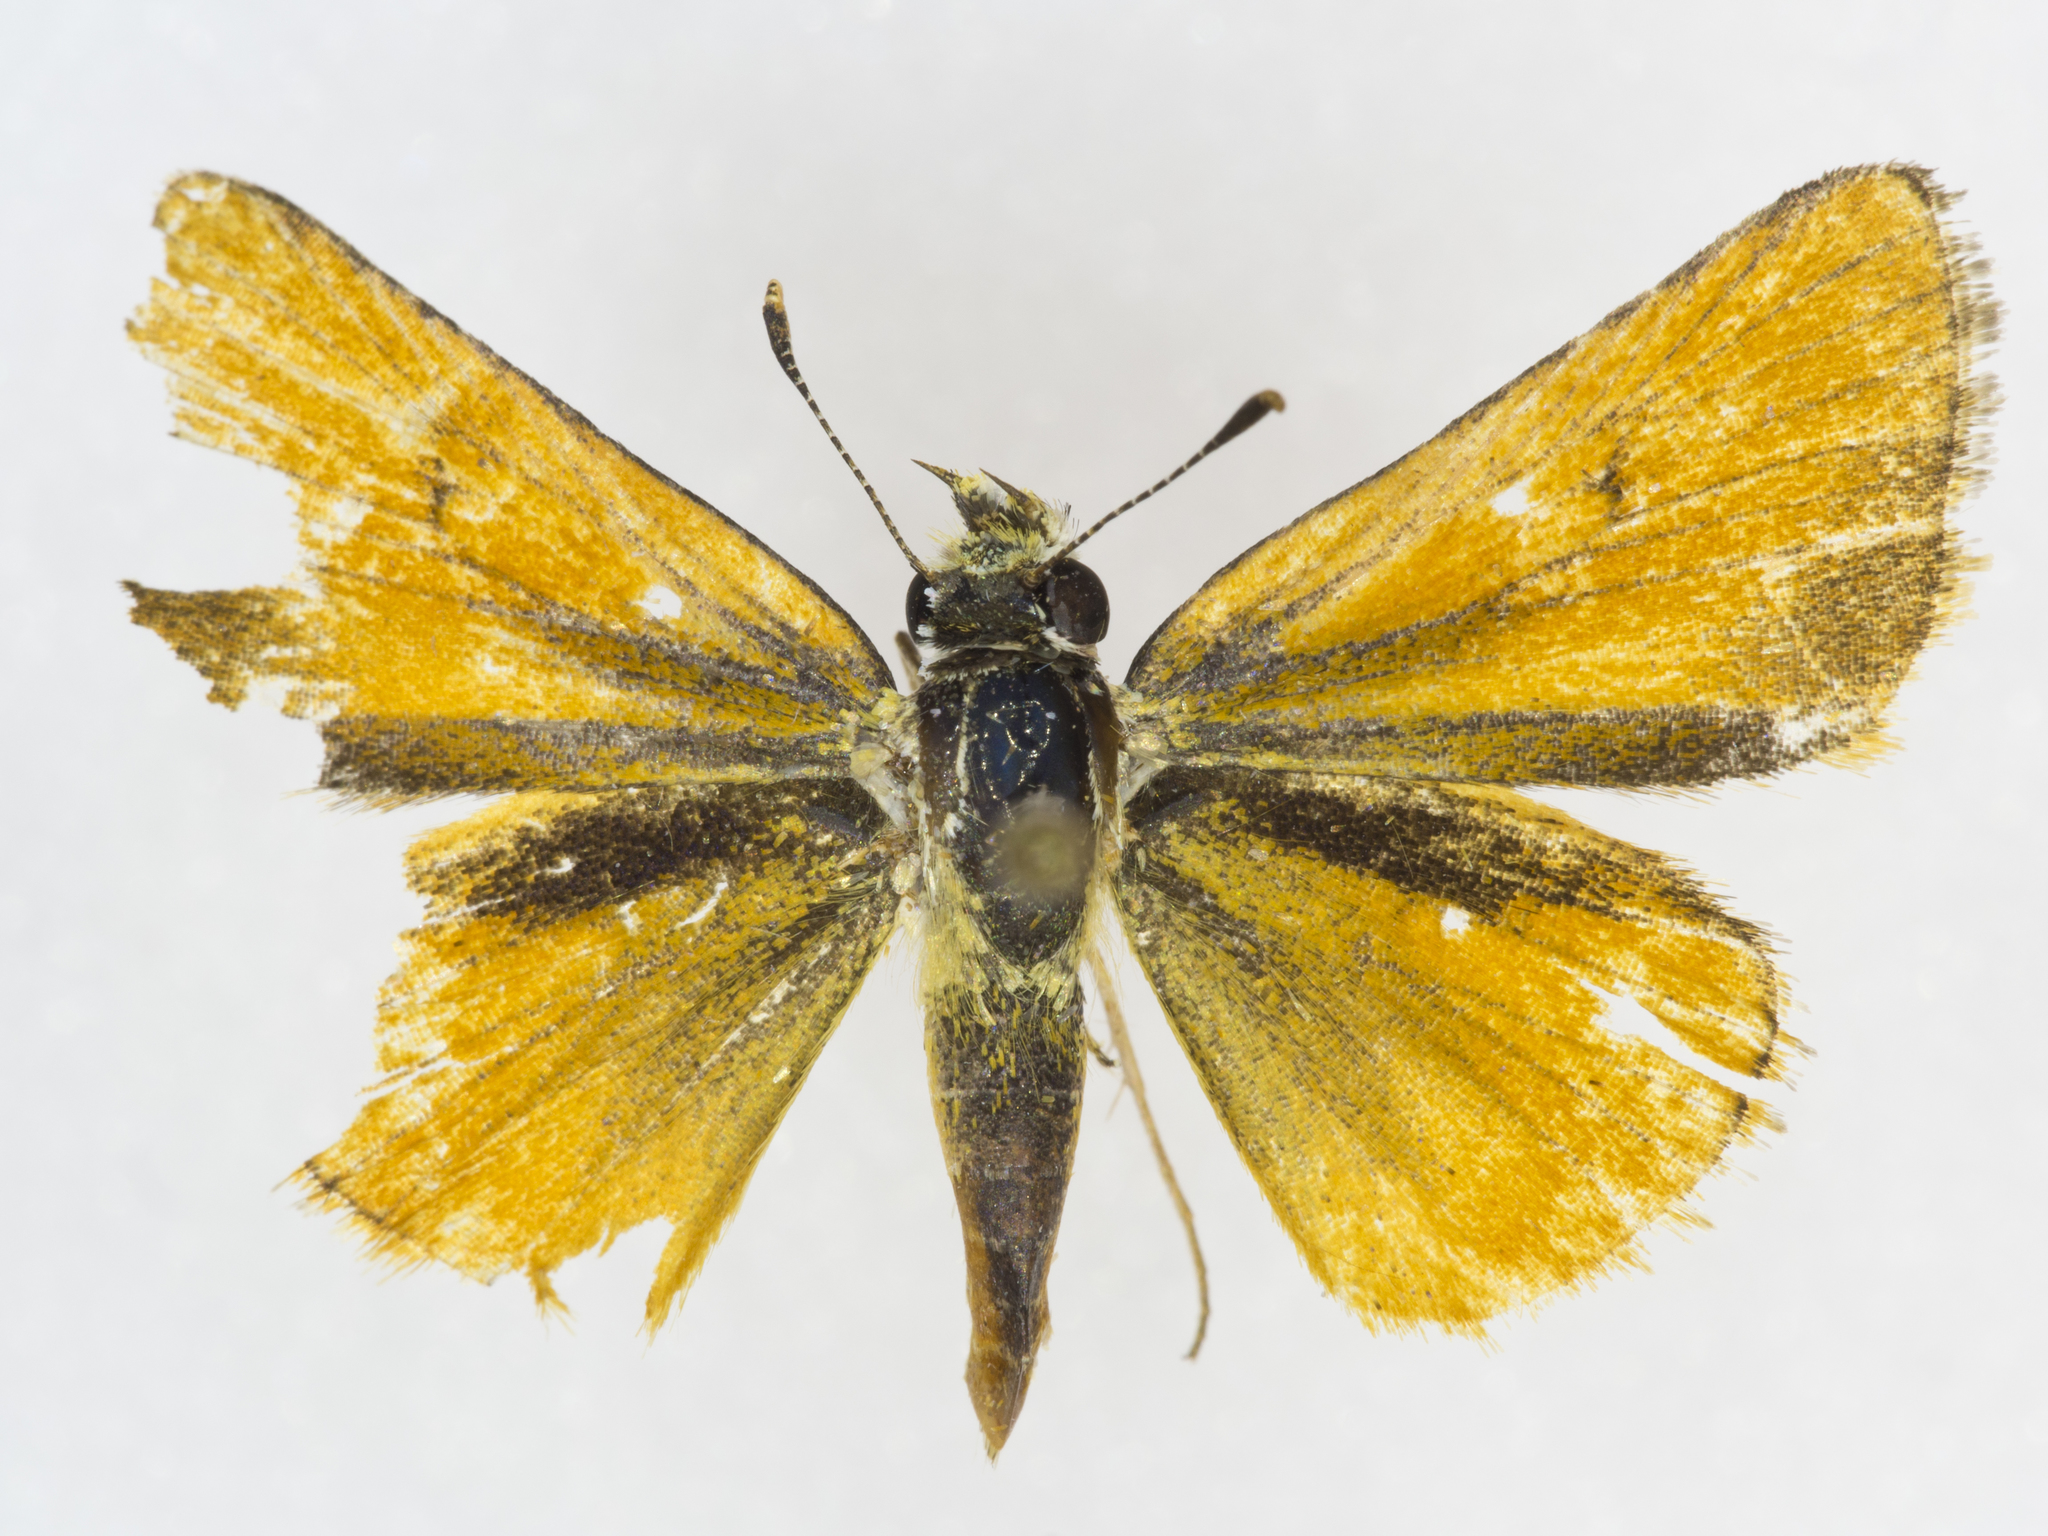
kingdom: Animalia
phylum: Arthropoda
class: Insecta
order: Lepidoptera
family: Hesperiidae
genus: Copaeodes
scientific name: Copaeodes aurantiaca
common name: Orange skipperling
